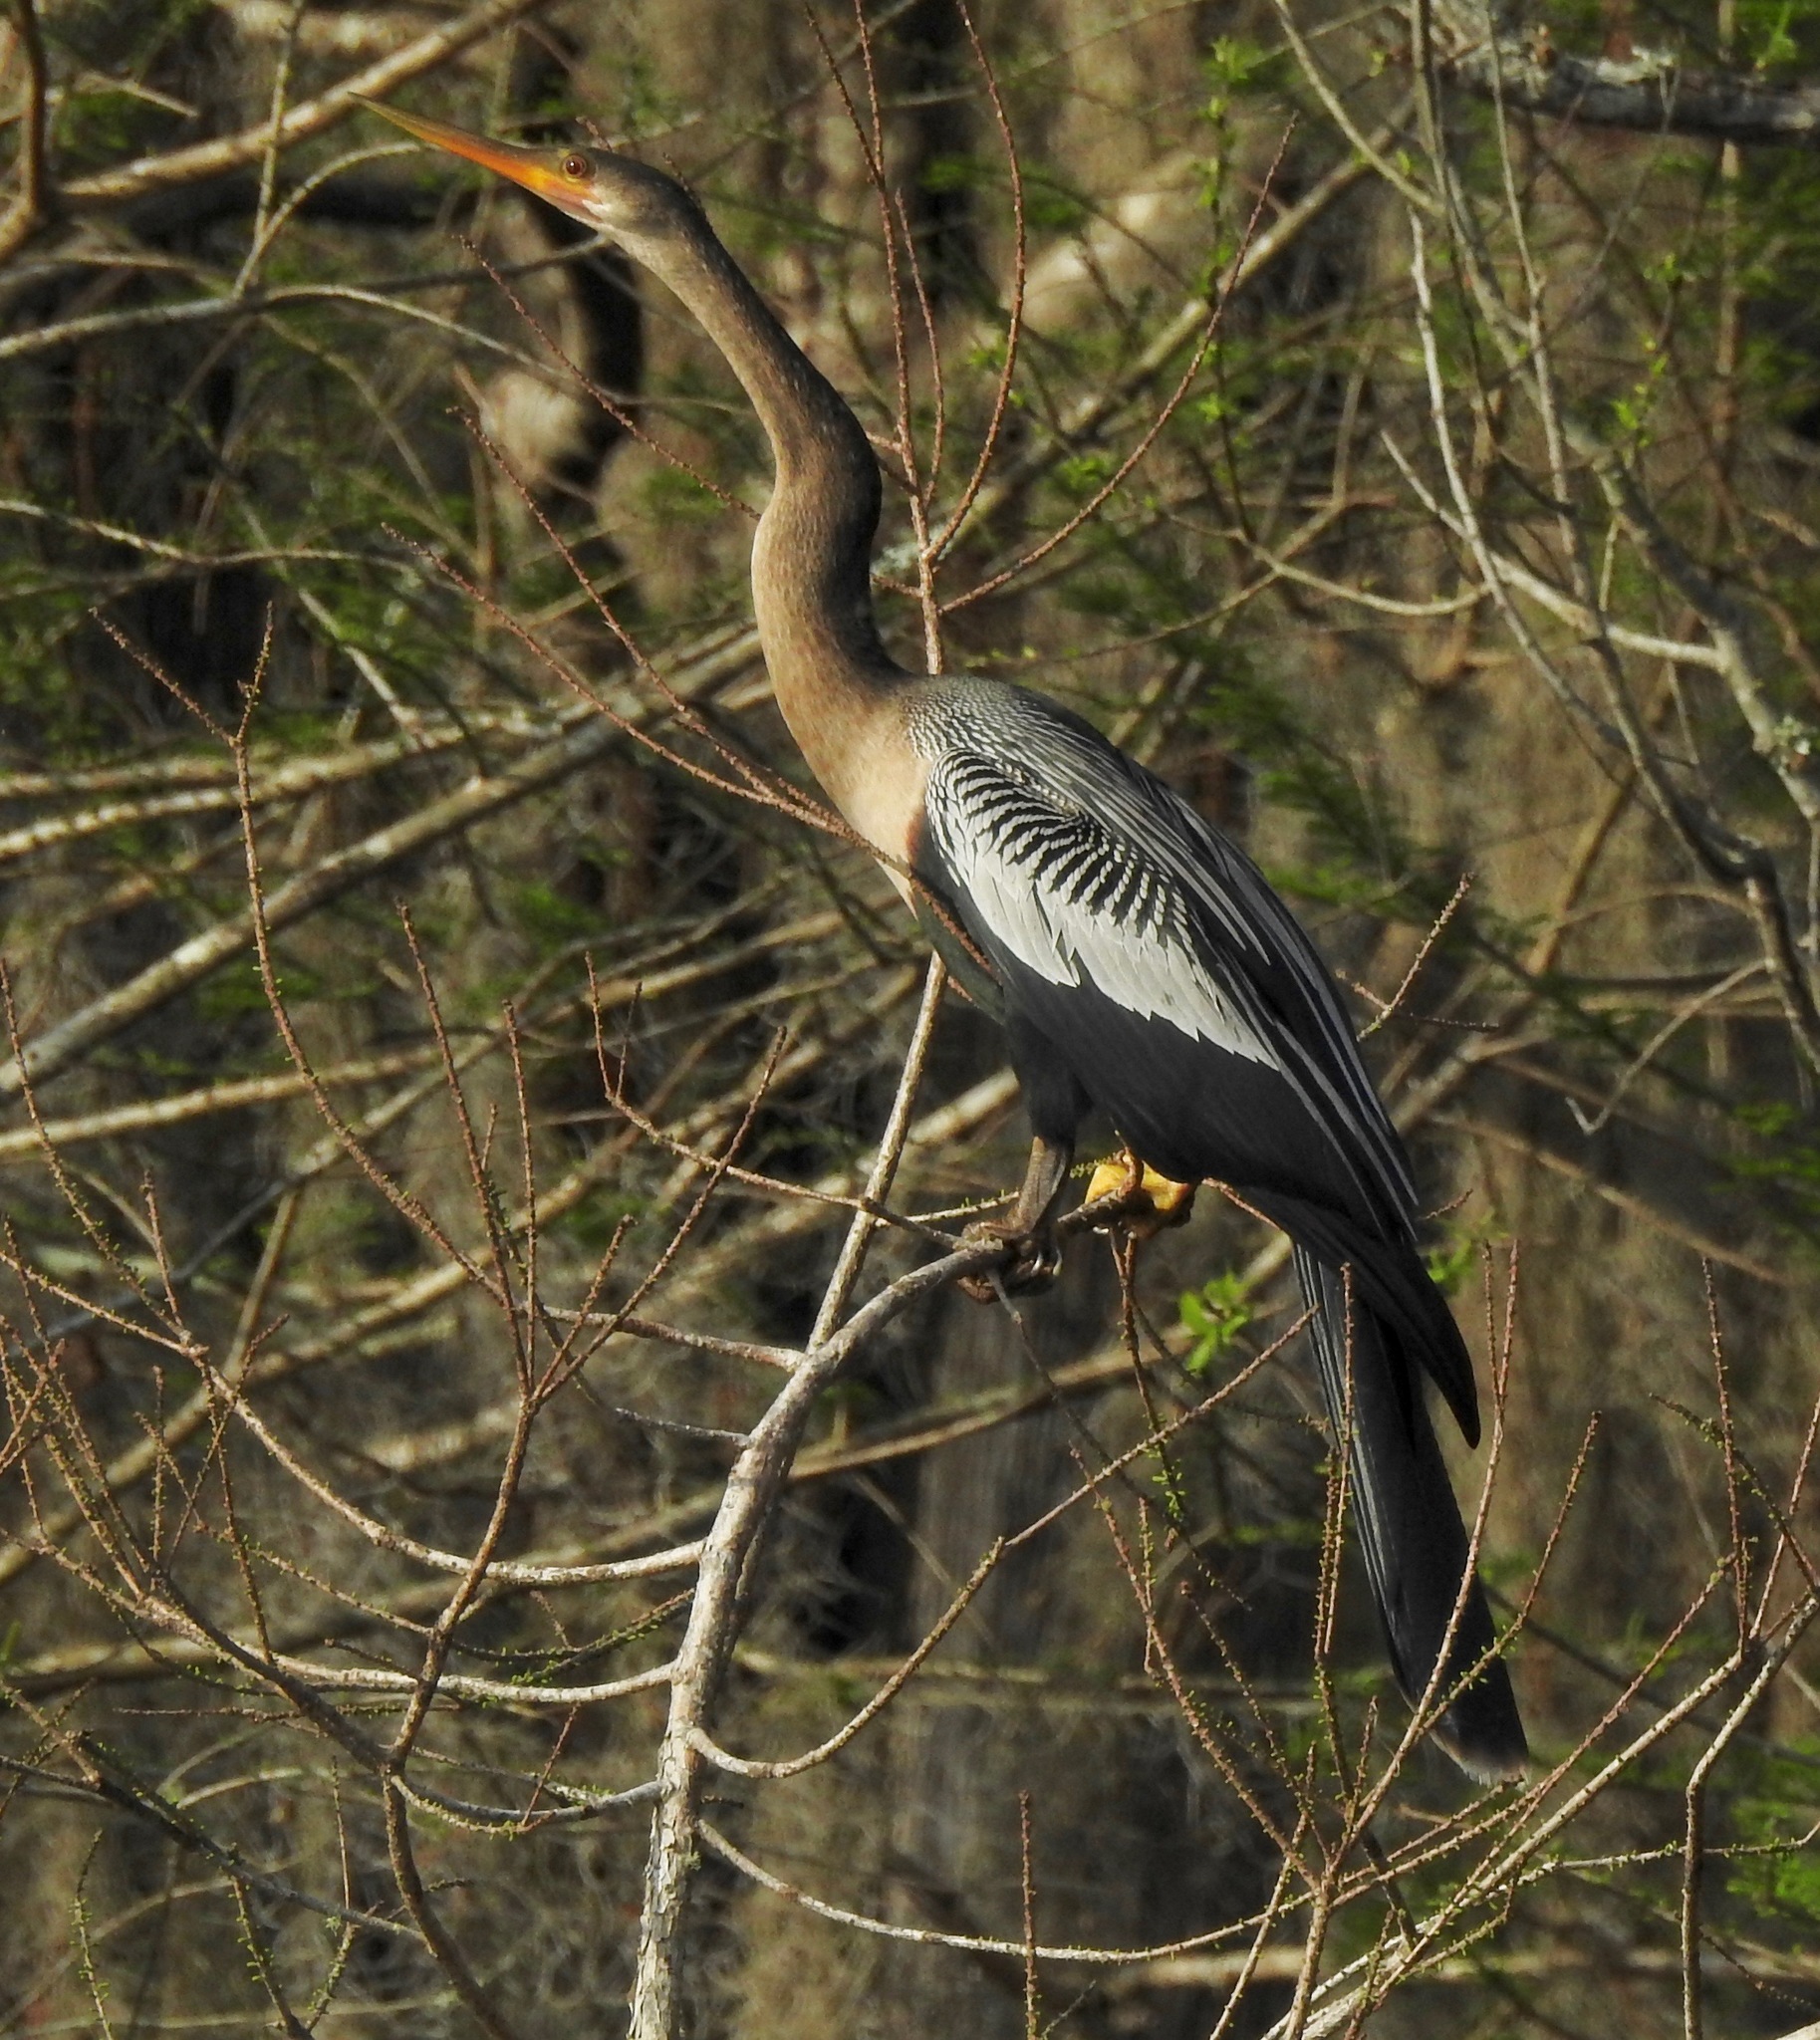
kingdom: Animalia
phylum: Chordata
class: Aves
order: Suliformes
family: Anhingidae
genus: Anhinga
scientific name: Anhinga anhinga
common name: Anhinga
